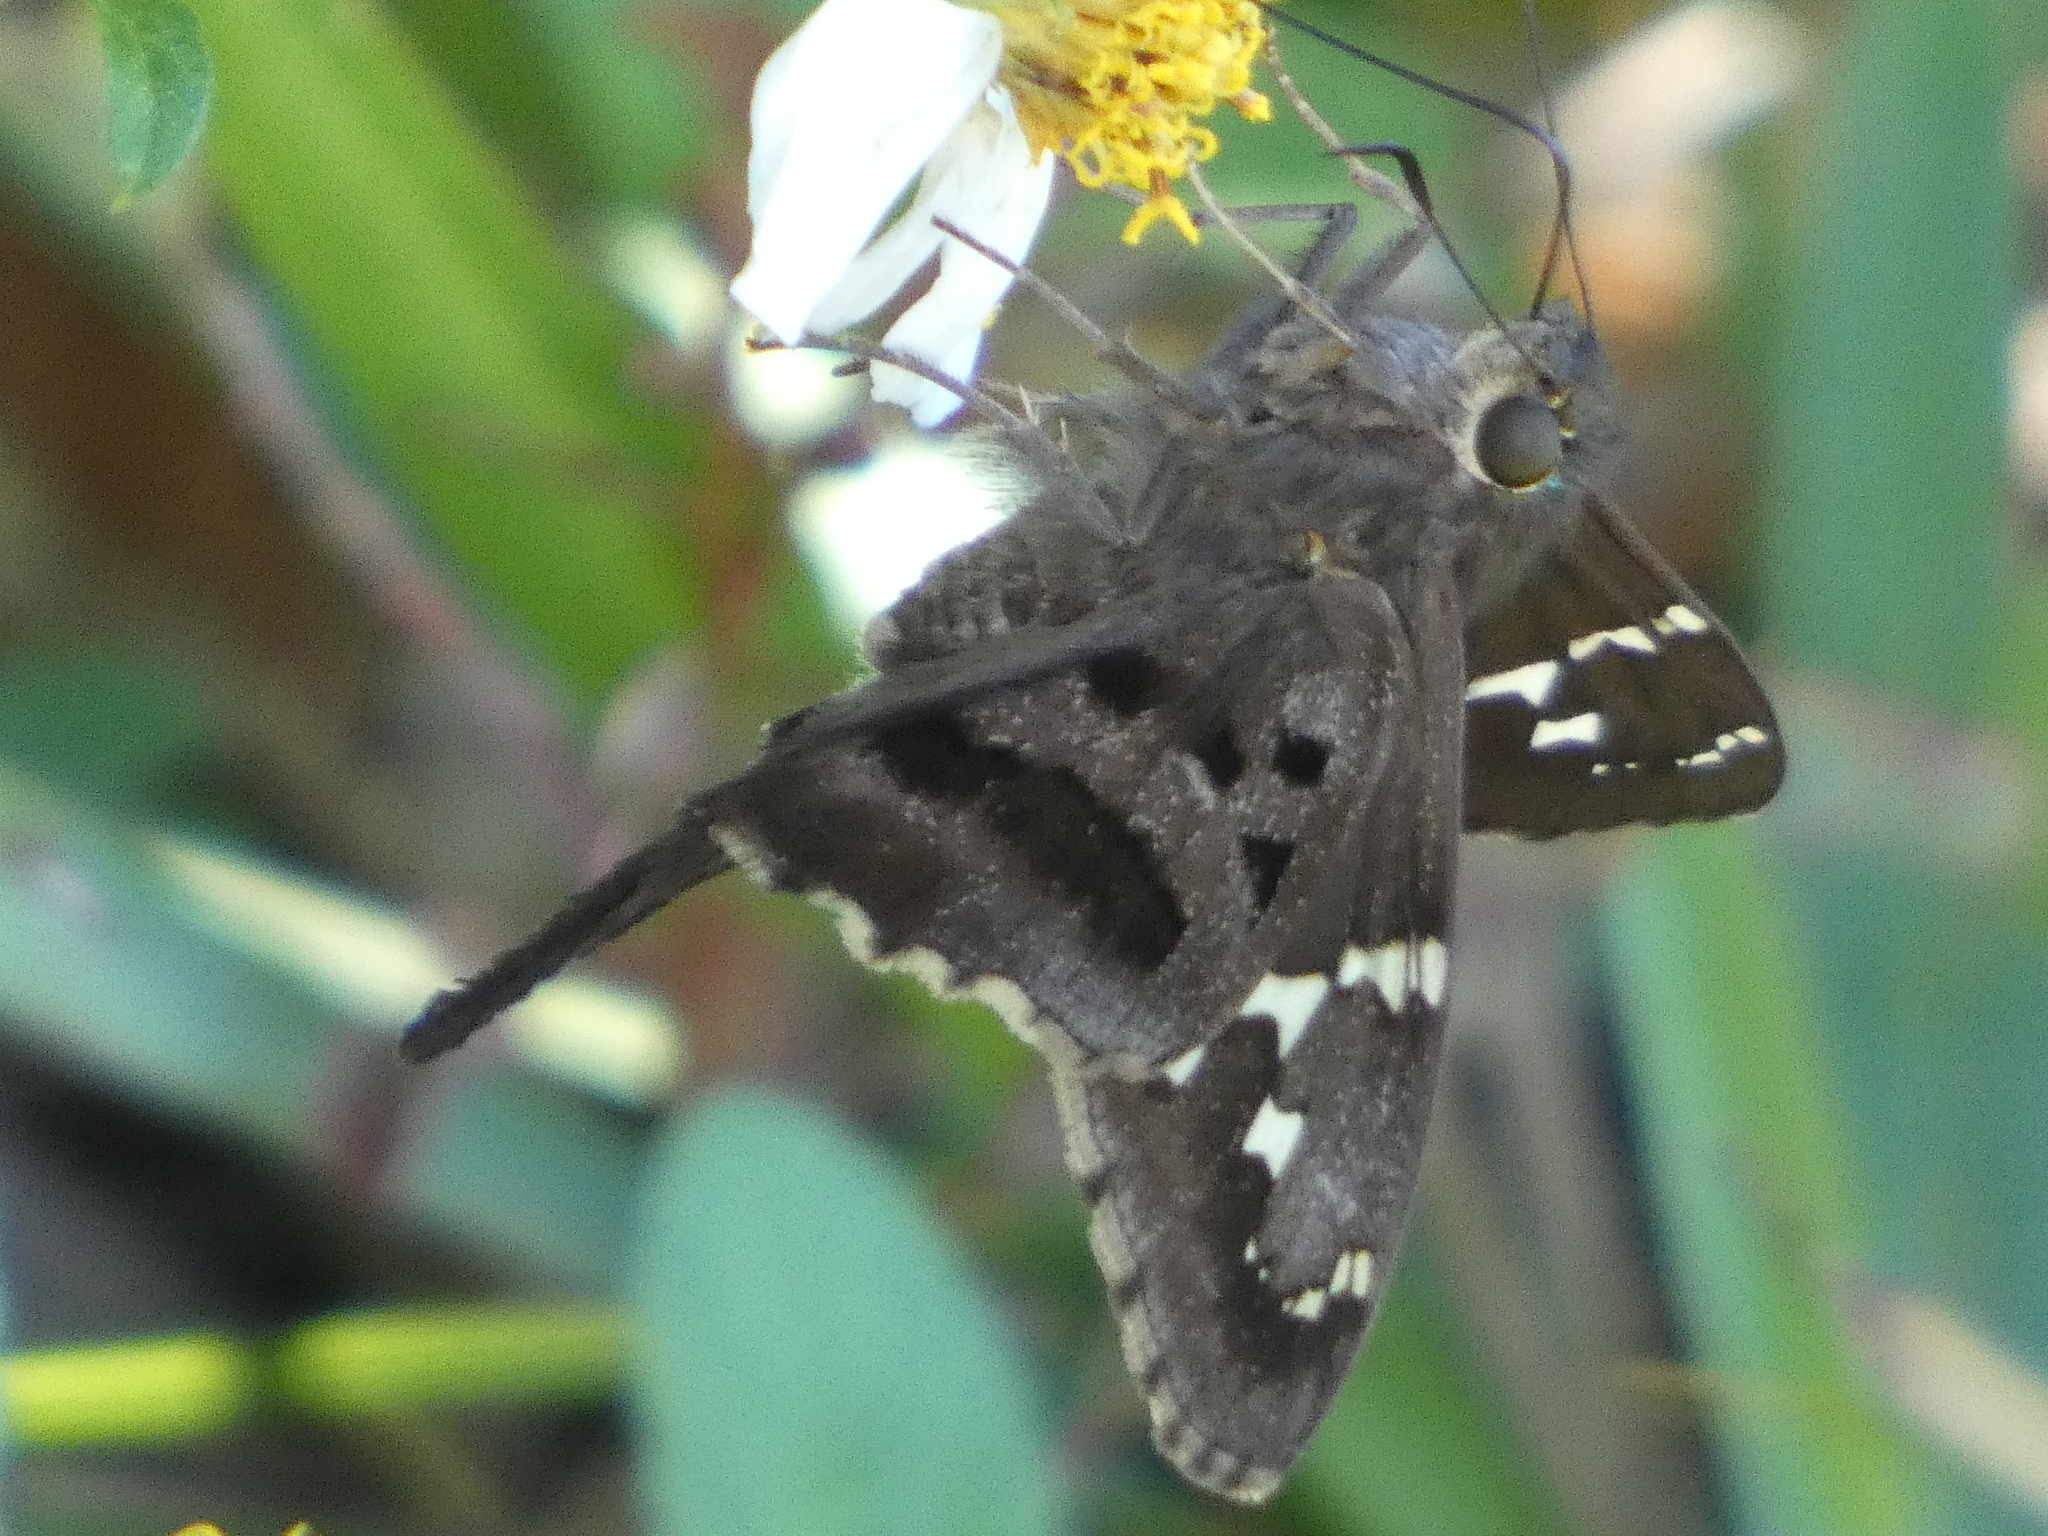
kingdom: Animalia
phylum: Arthropoda
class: Insecta
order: Lepidoptera
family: Hesperiidae
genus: Urbanus
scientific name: Urbanus proteus
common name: Long-tailed skipper
